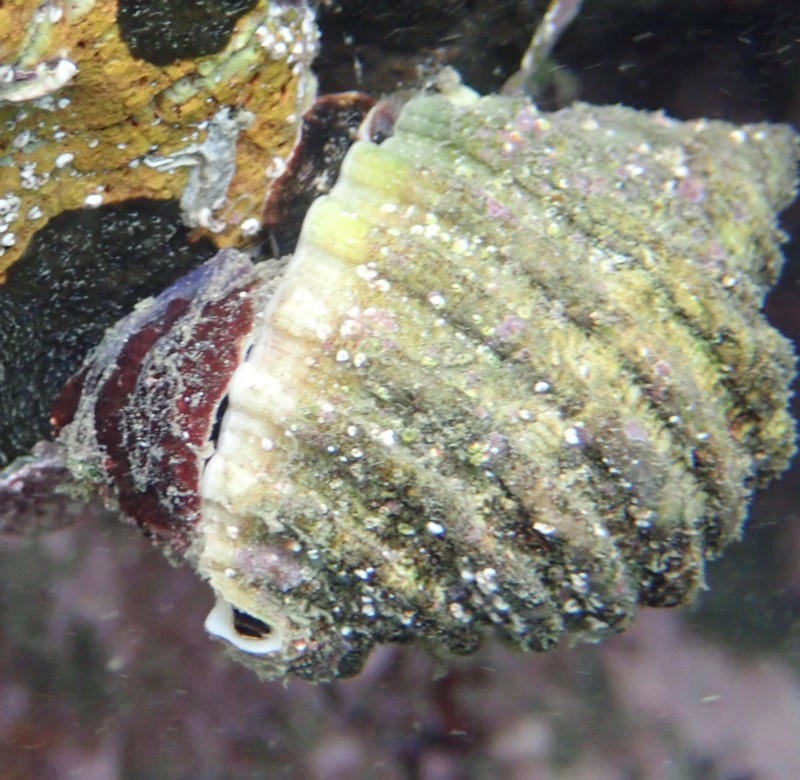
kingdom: Animalia
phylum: Mollusca
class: Gastropoda
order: Neogastropoda
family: Muricidae
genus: Dicathais
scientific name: Dicathais orbita
